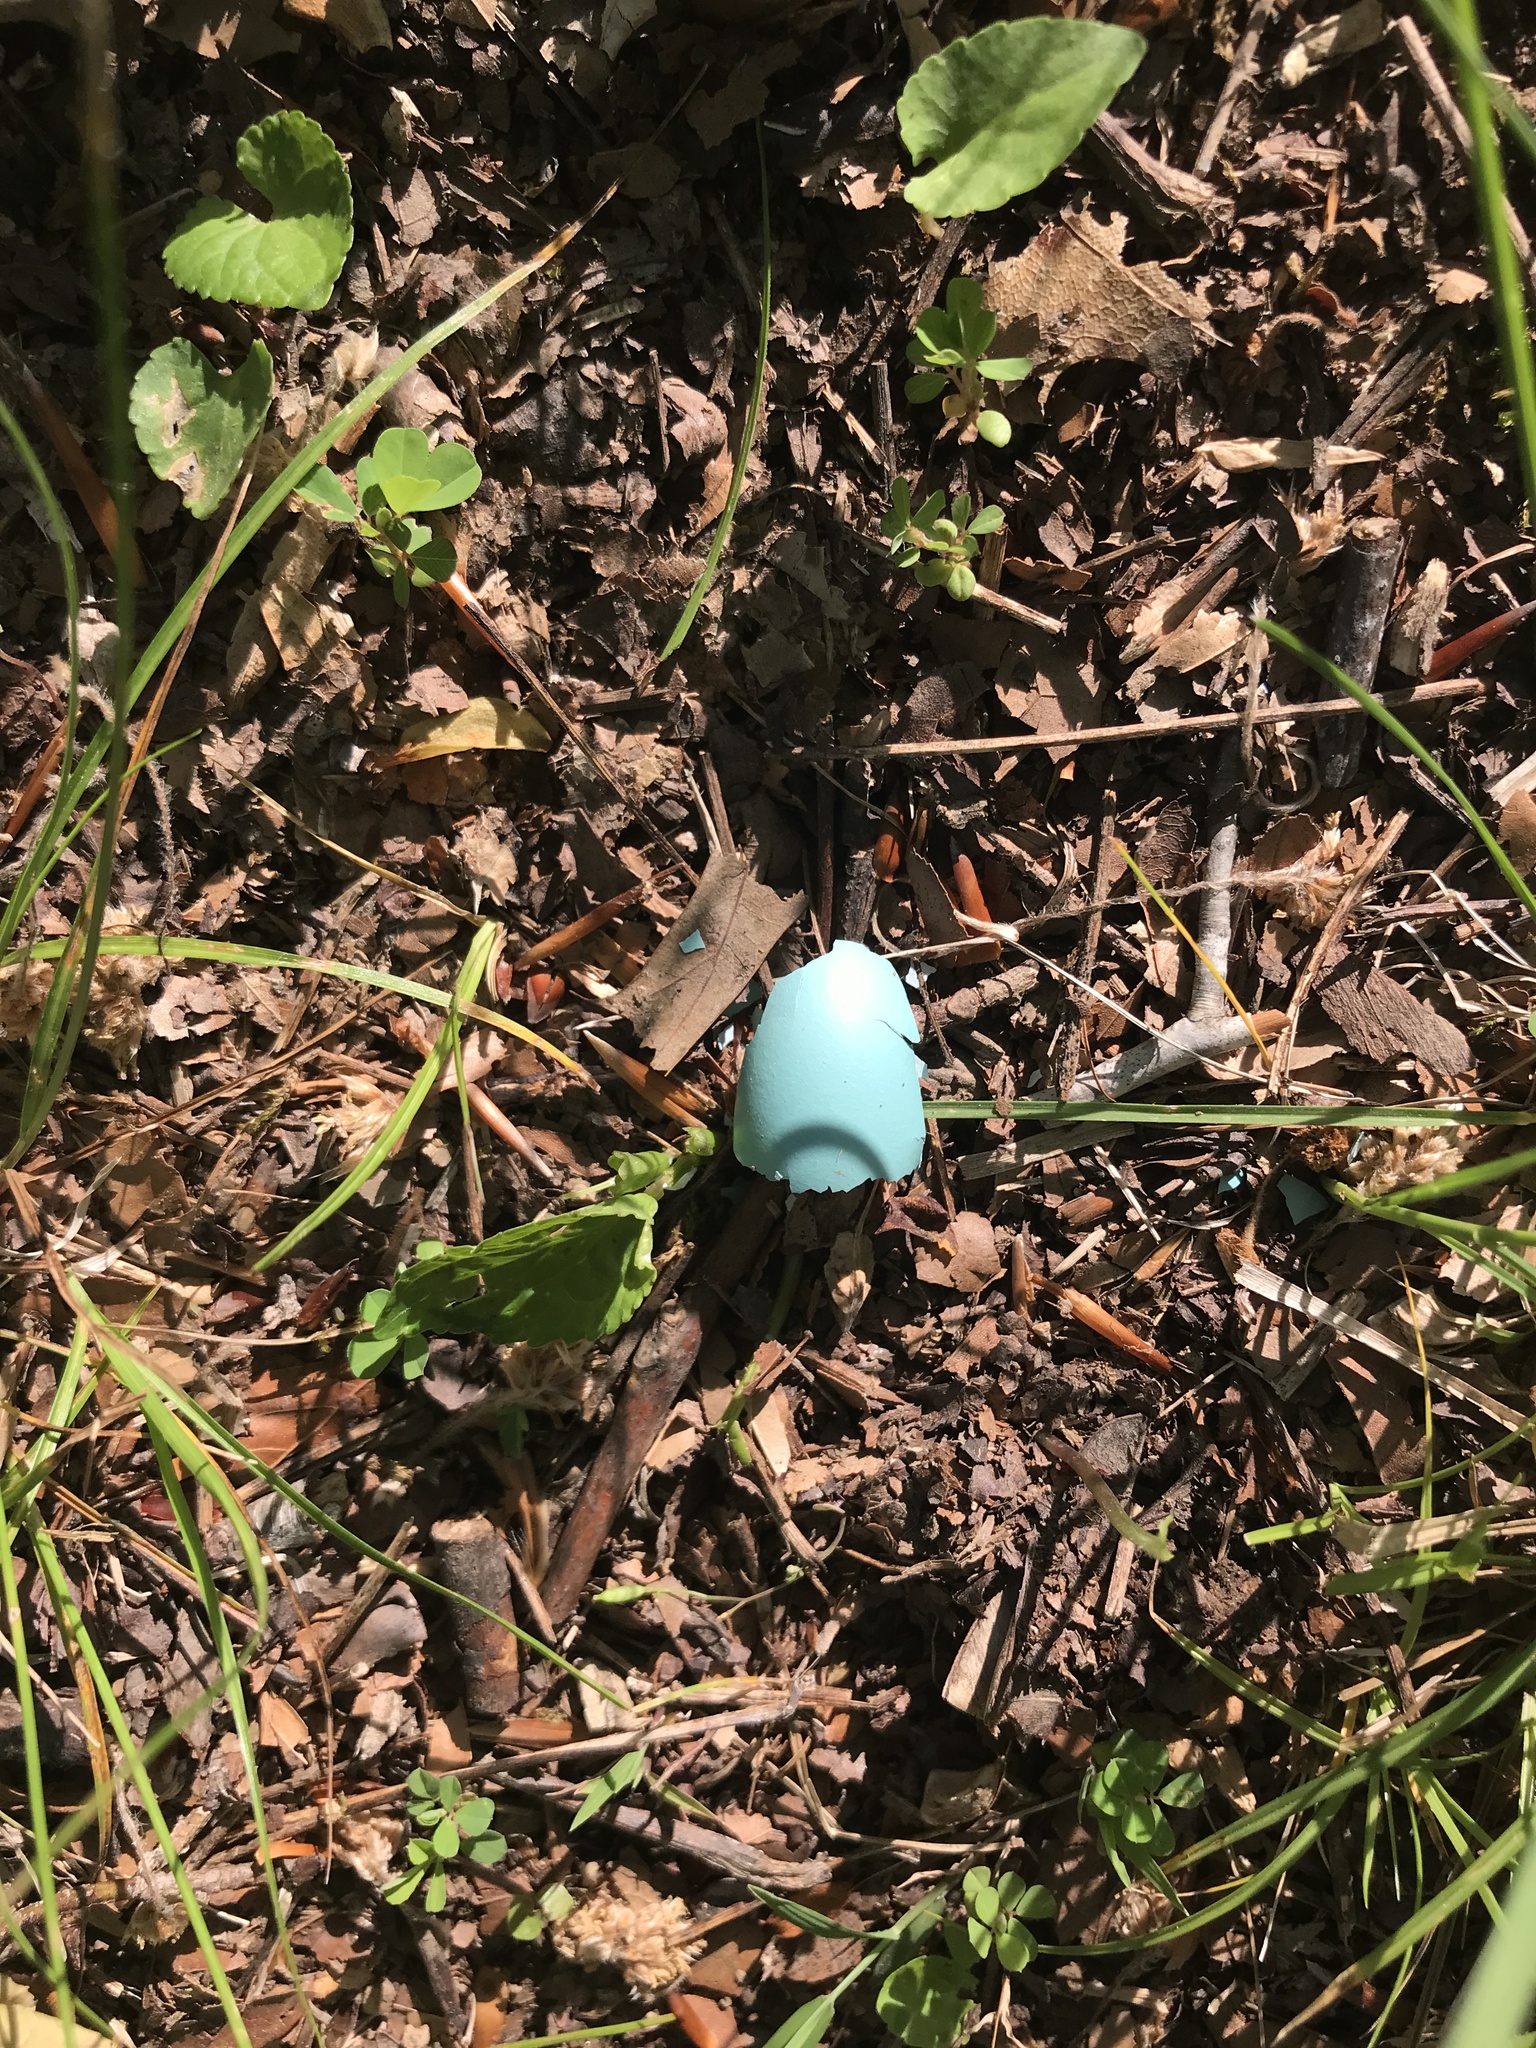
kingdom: Animalia
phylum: Chordata
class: Aves
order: Passeriformes
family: Turdidae
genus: Turdus
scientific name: Turdus migratorius
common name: American robin
